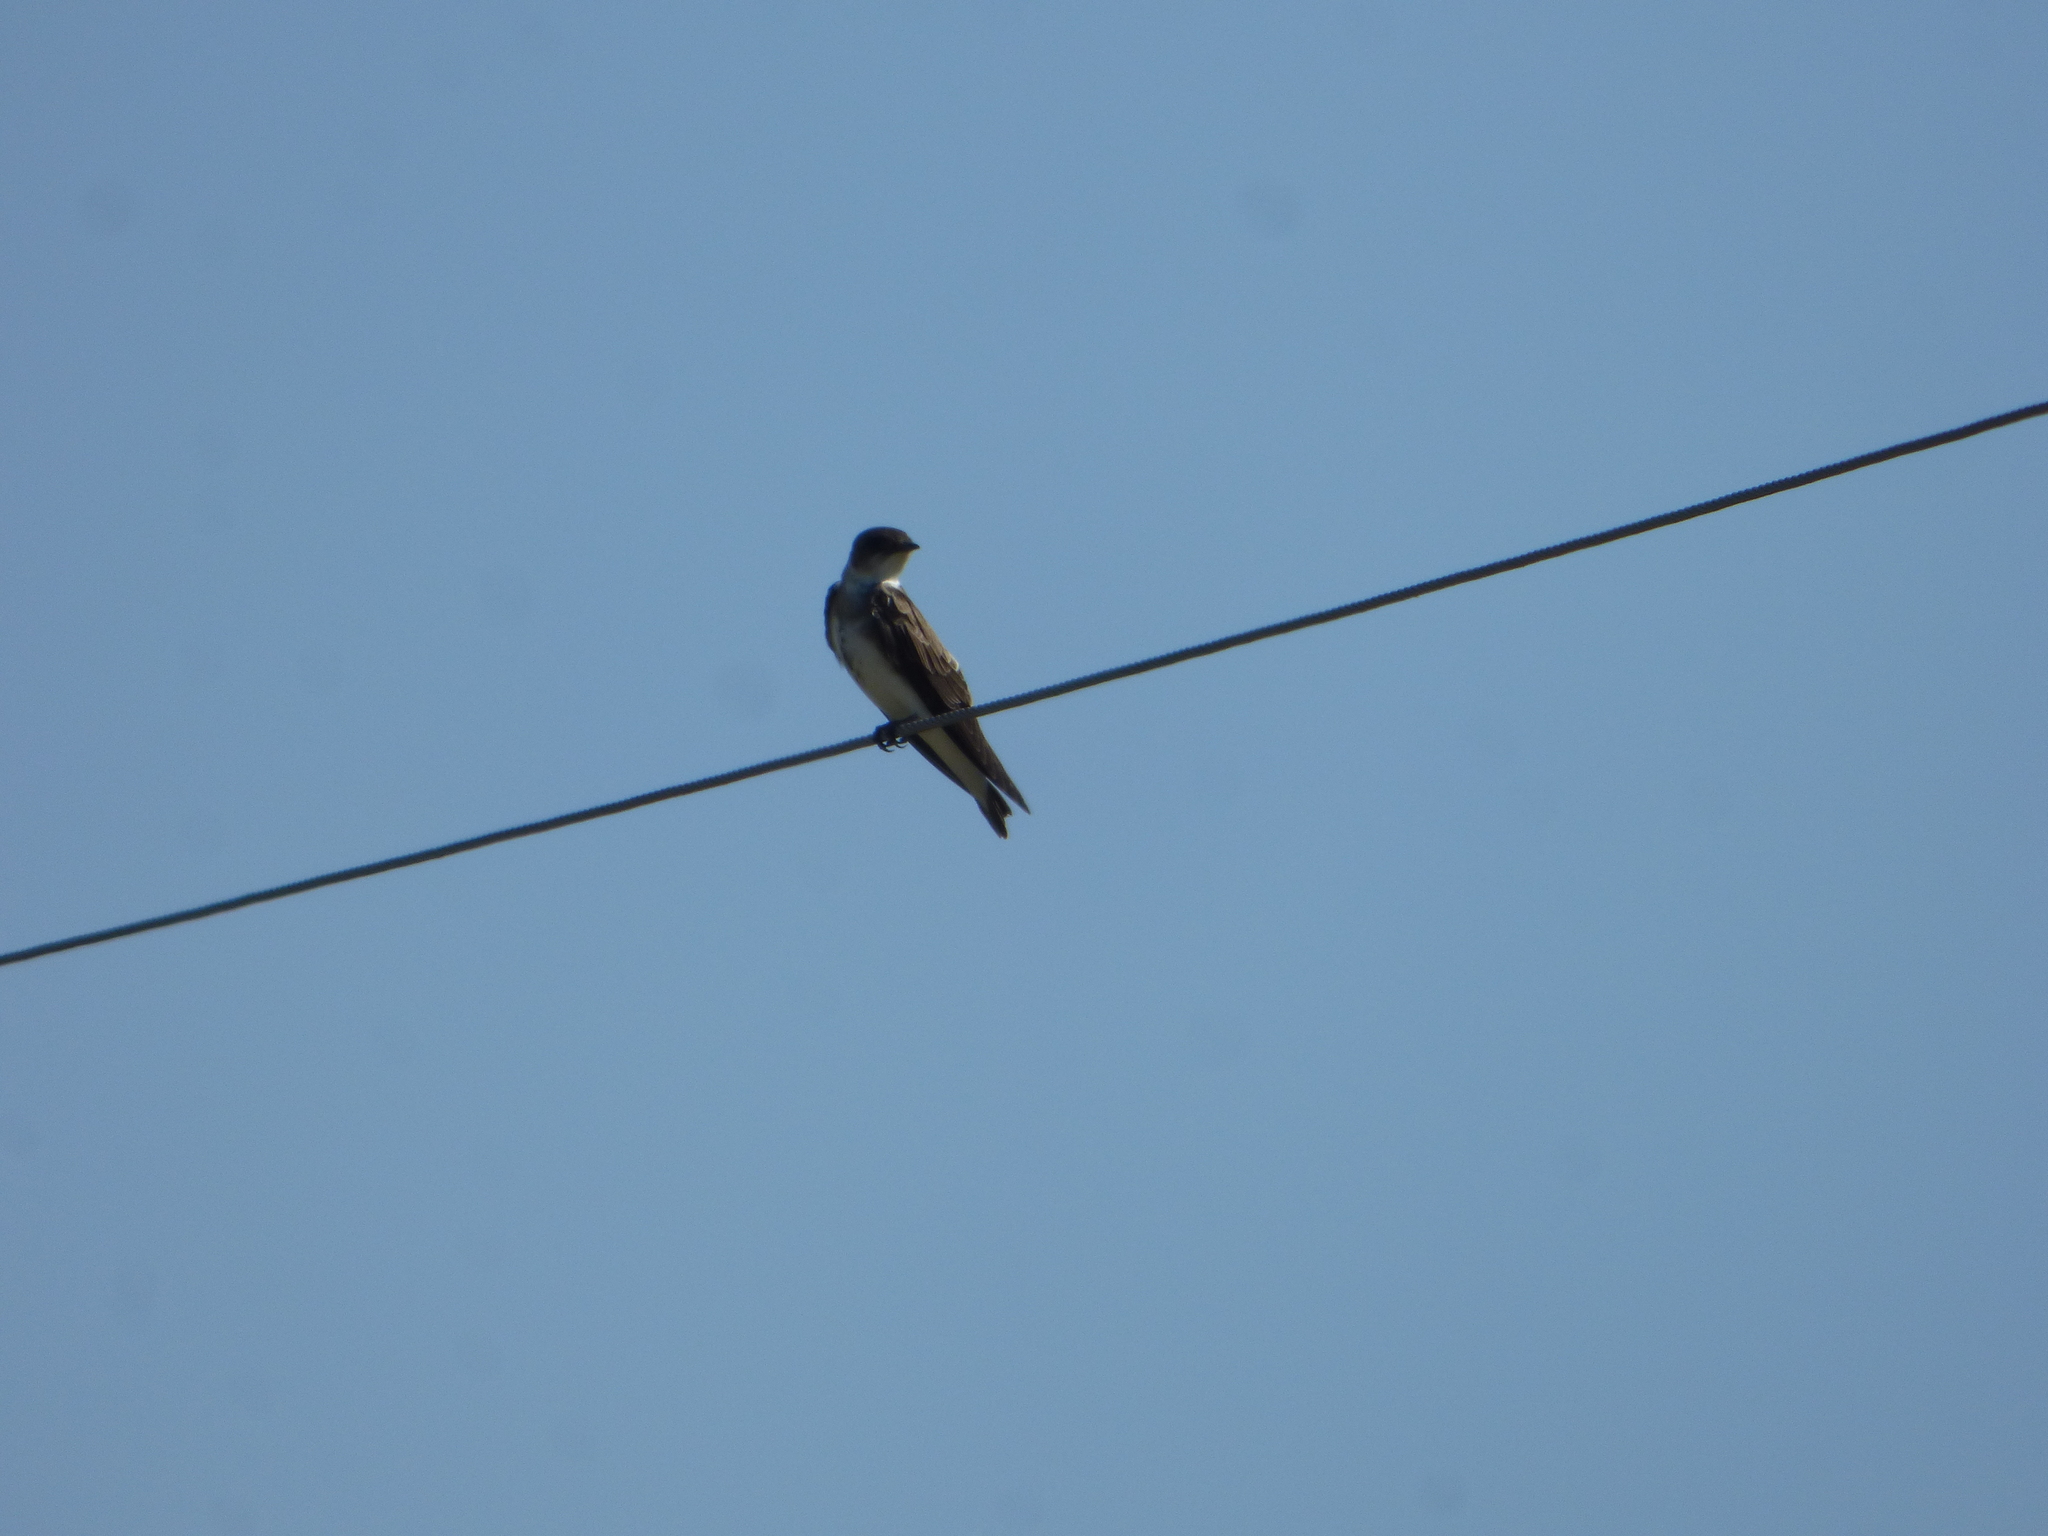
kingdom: Animalia
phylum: Chordata
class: Aves
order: Passeriformes
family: Hirundinidae
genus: Progne
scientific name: Progne tapera
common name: Brown-chested martin
